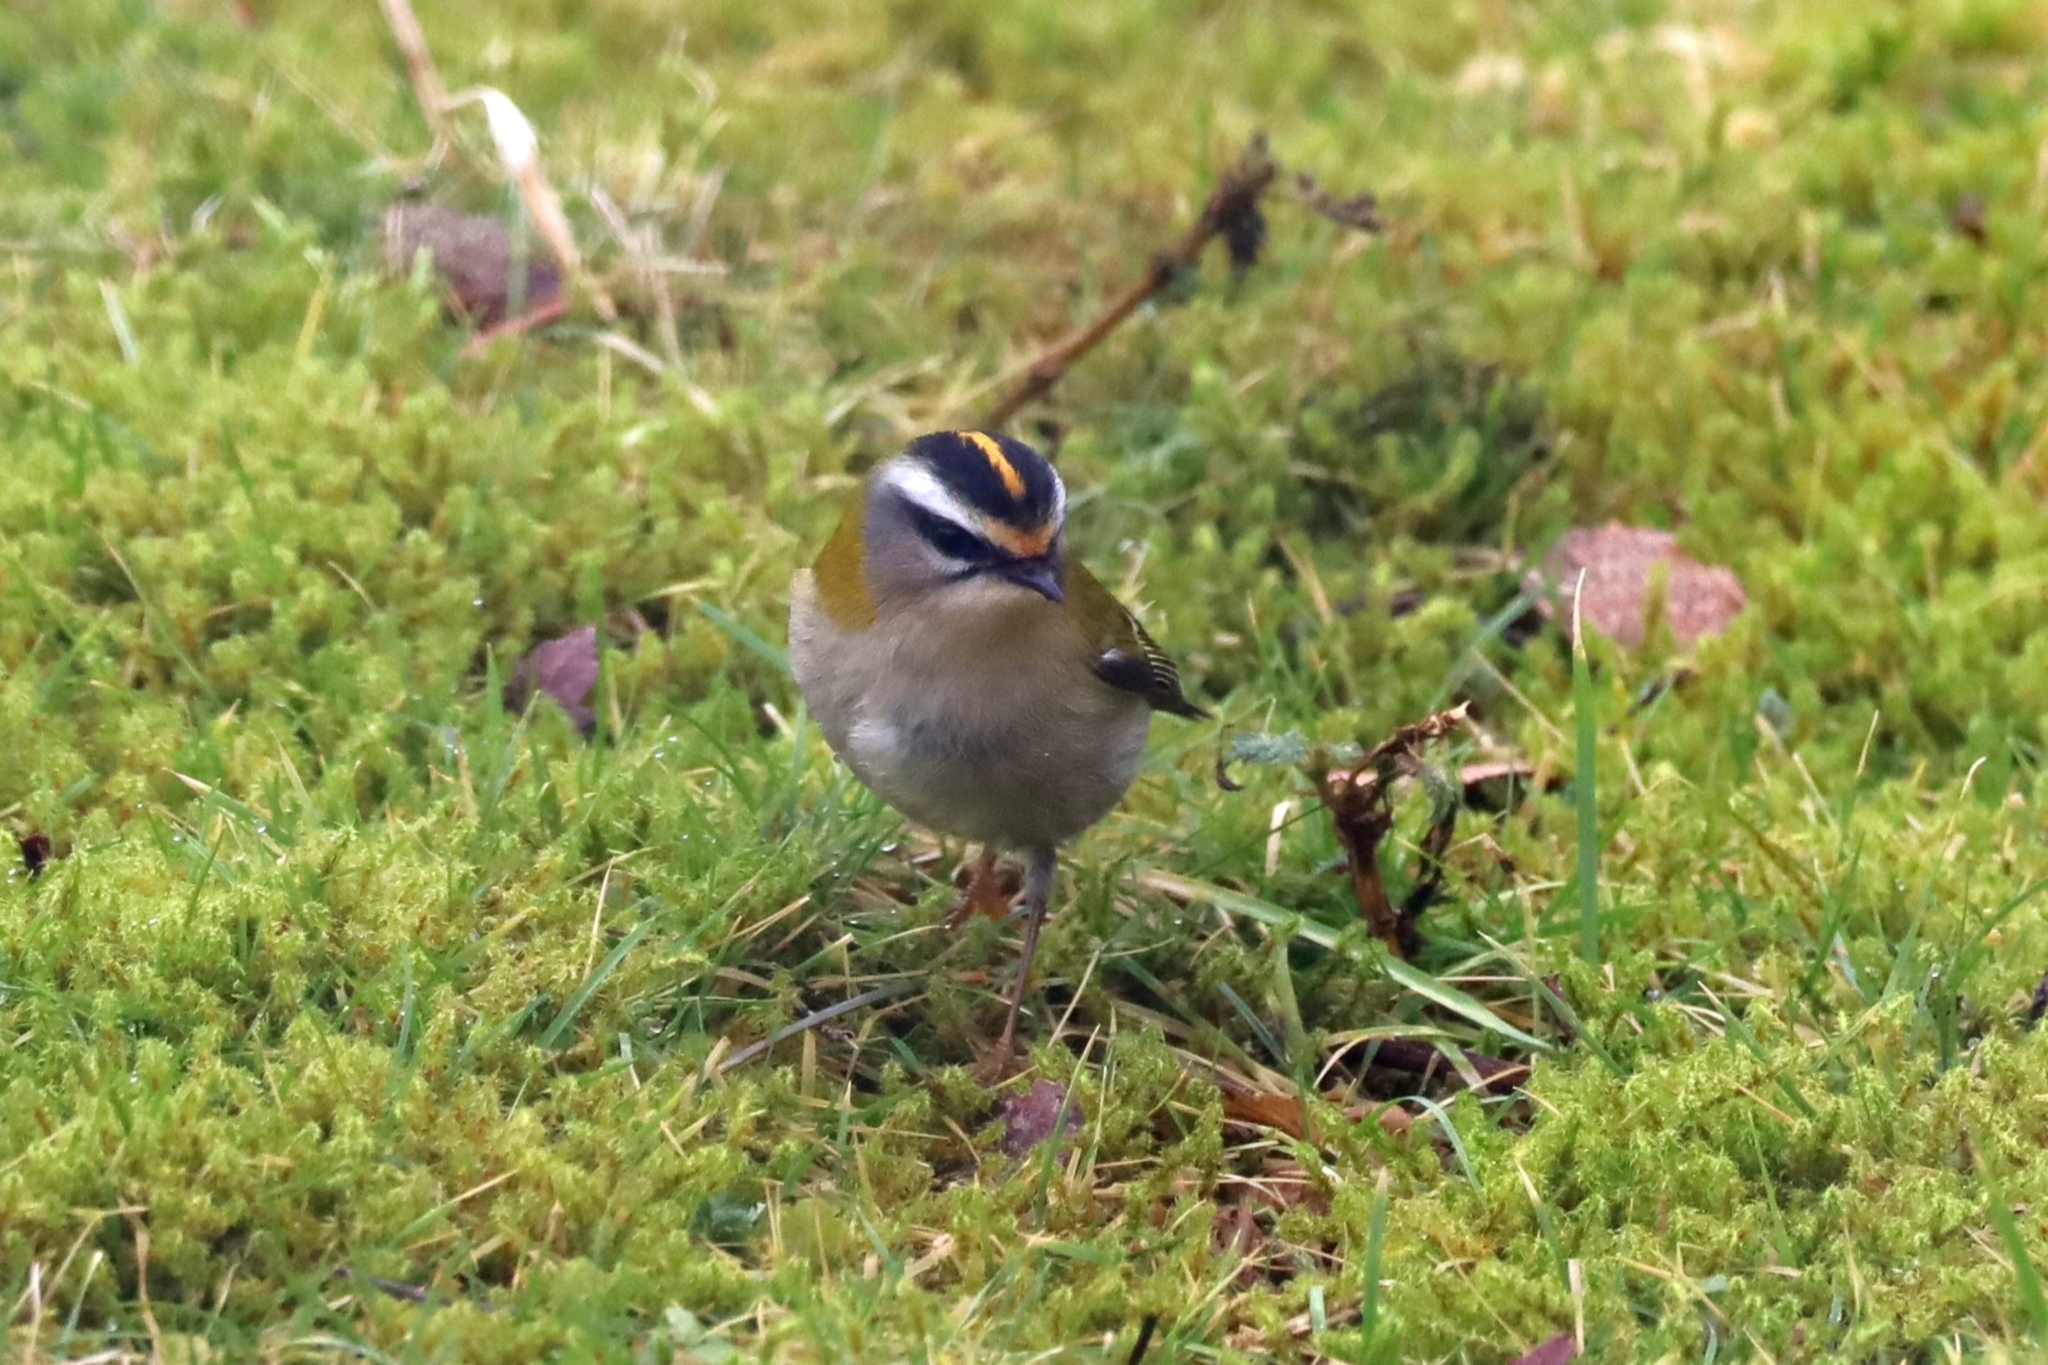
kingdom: Animalia
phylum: Chordata
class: Aves
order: Passeriformes
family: Regulidae
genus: Regulus
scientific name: Regulus ignicapilla
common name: Firecrest
